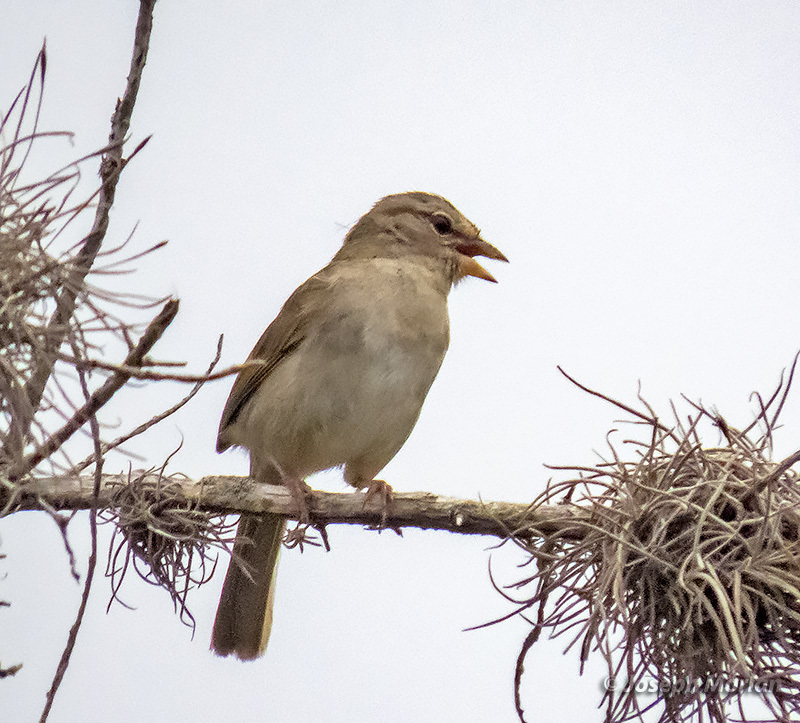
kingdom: Animalia
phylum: Chordata
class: Aves
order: Passeriformes
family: Passerellidae
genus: Arremonops
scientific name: Arremonops rufivirgatus
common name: Olive sparrow
